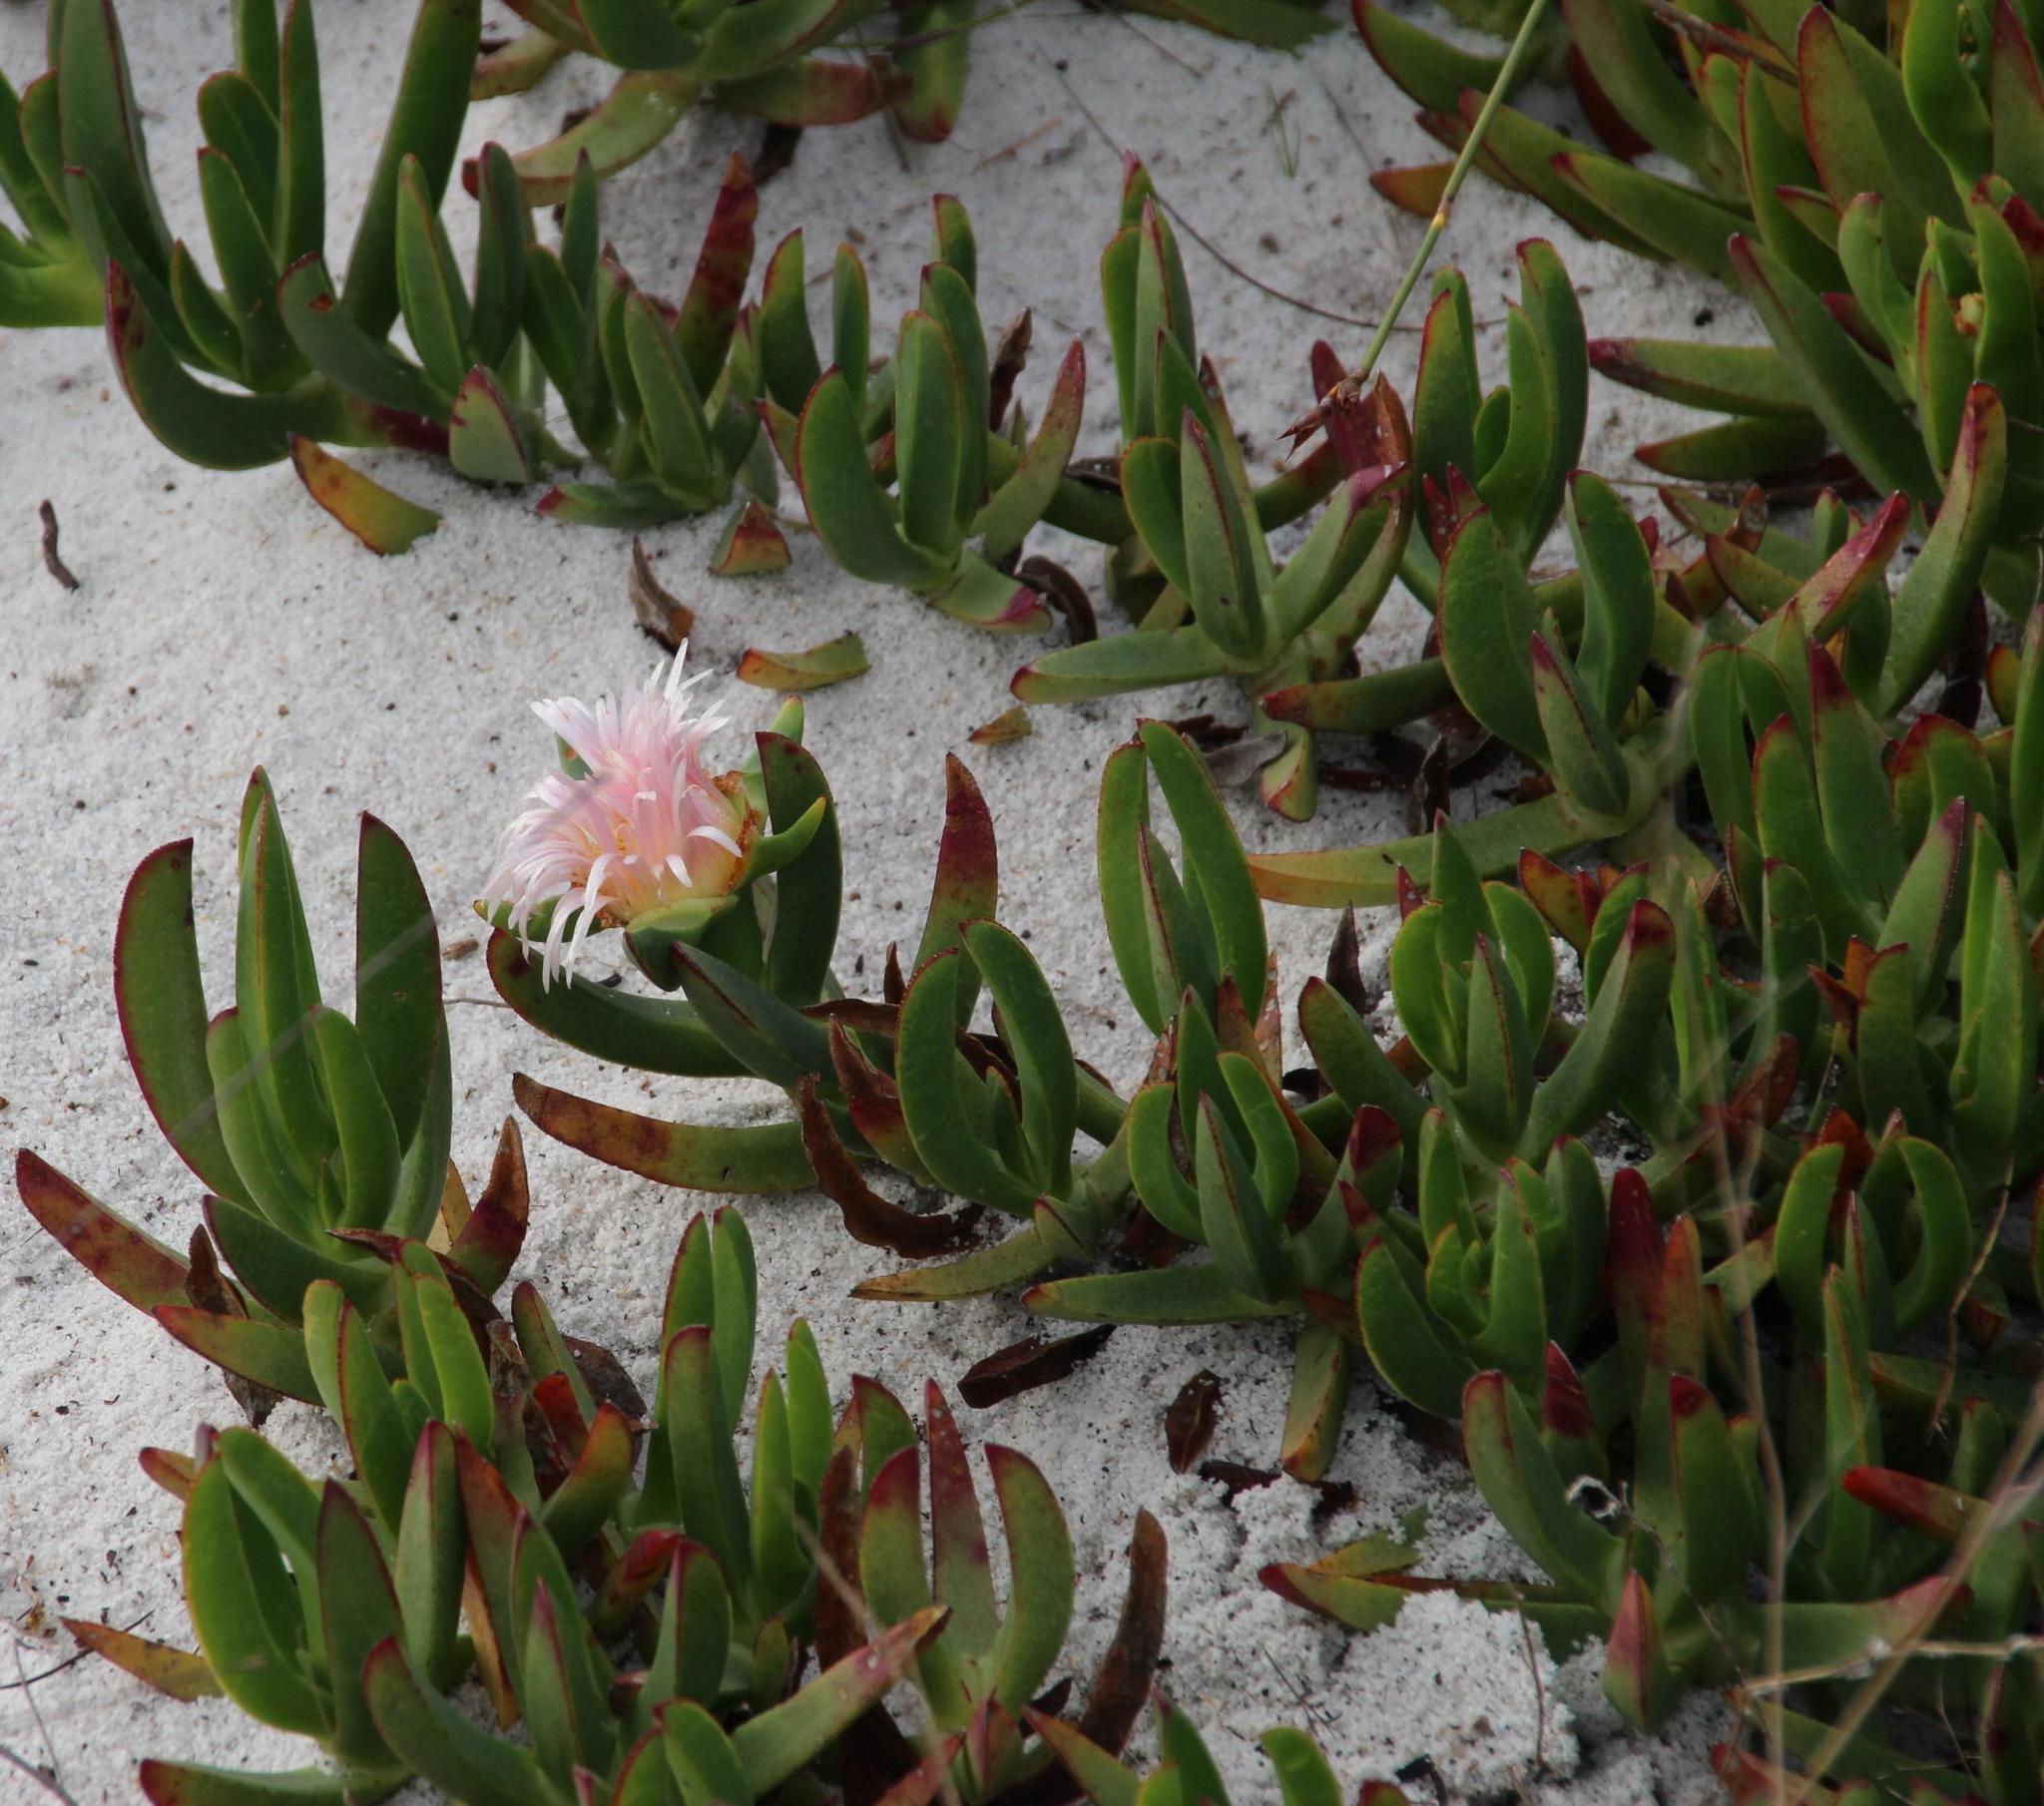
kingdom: Plantae
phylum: Tracheophyta
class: Magnoliopsida
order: Caryophyllales
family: Aizoaceae
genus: Carpobrotus
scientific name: Carpobrotus edulis
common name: Hottentot-fig
